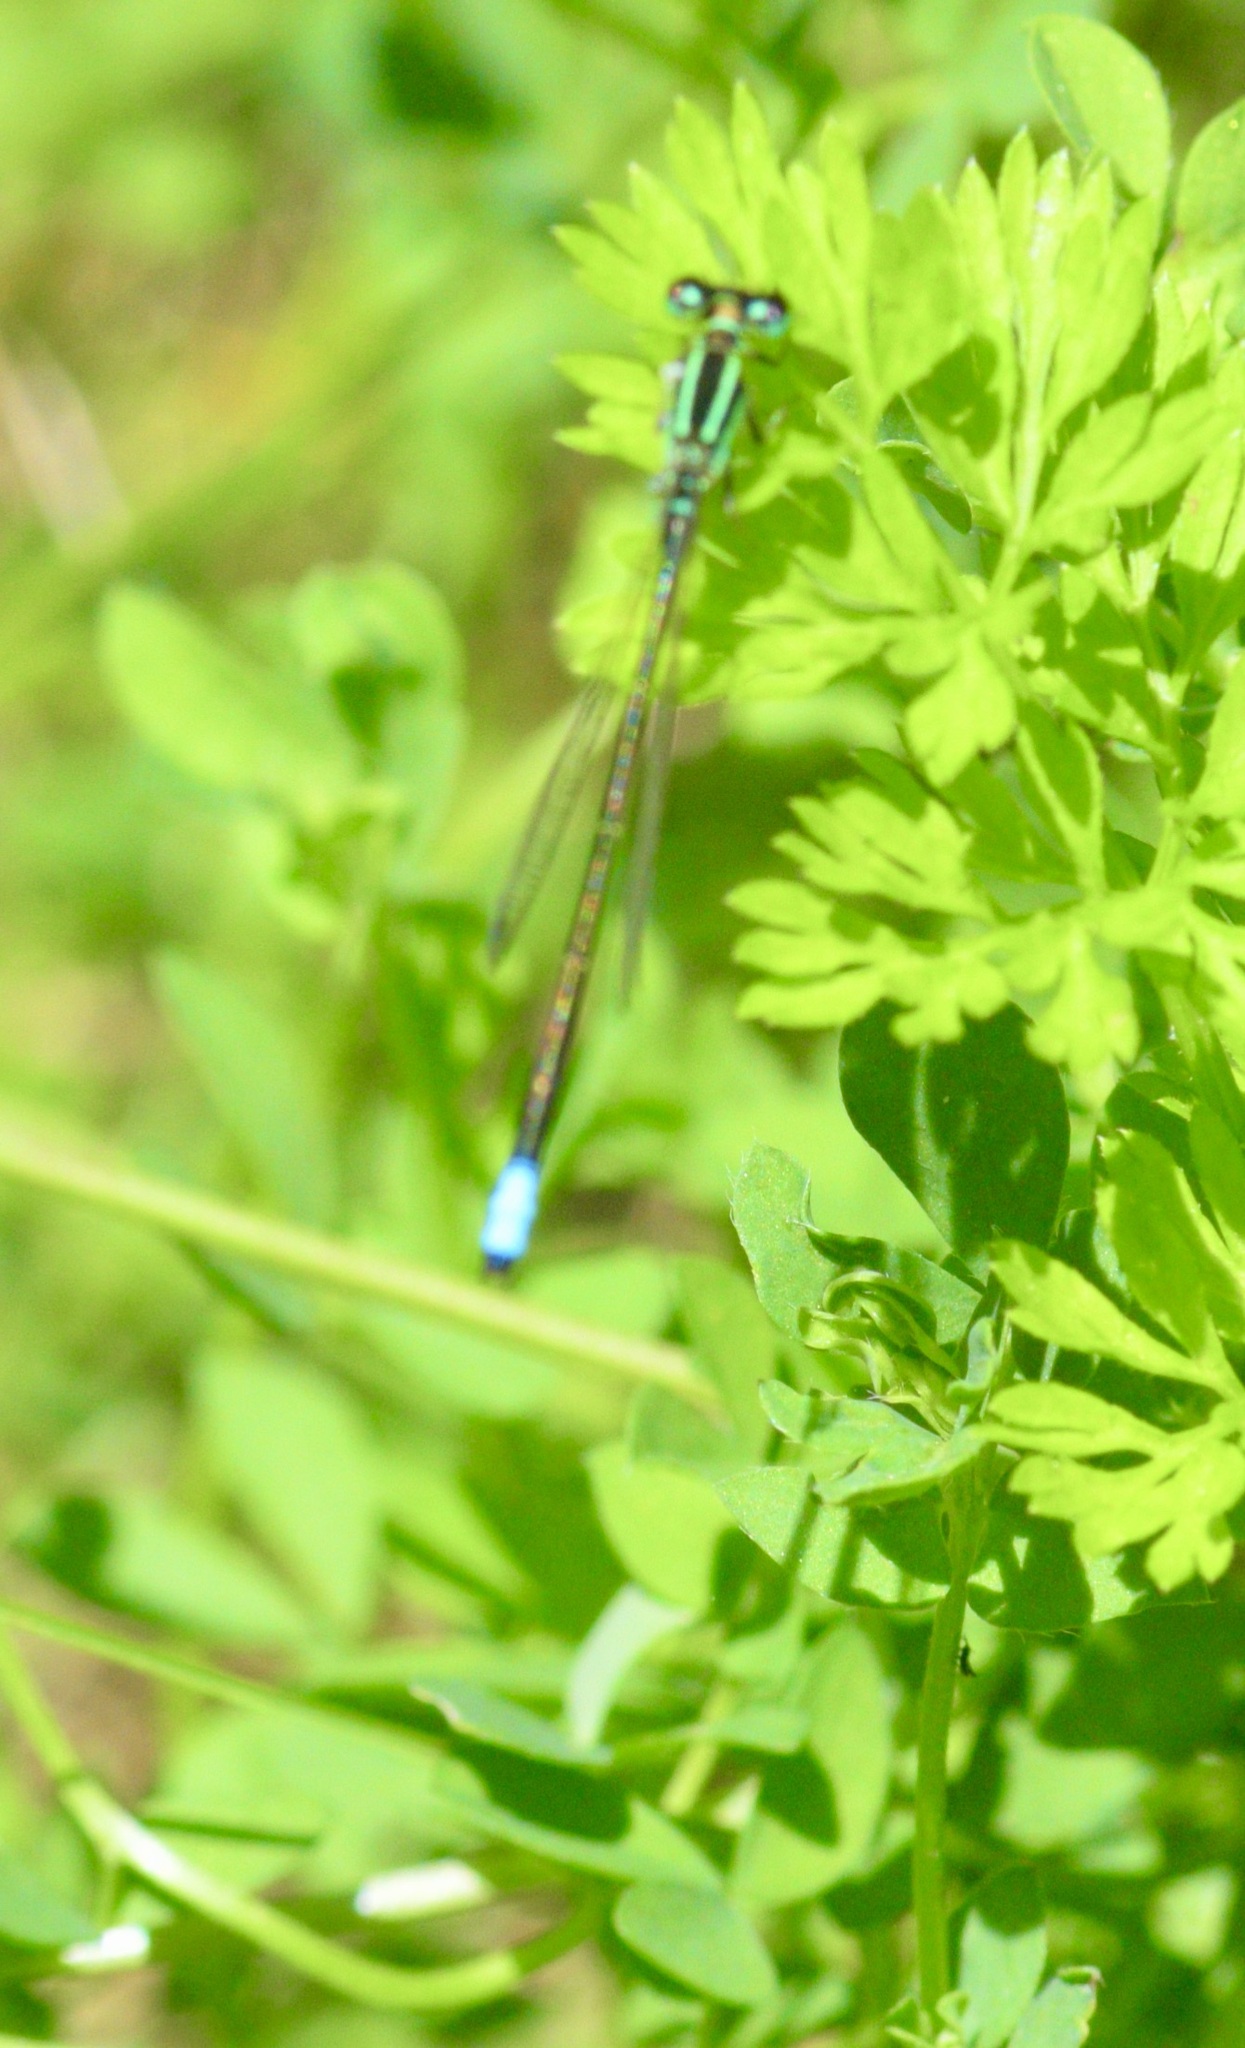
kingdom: Animalia
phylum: Arthropoda
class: Insecta
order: Odonata
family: Coenagrionidae
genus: Ischnura
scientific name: Ischnura verticalis
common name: Eastern forktail
